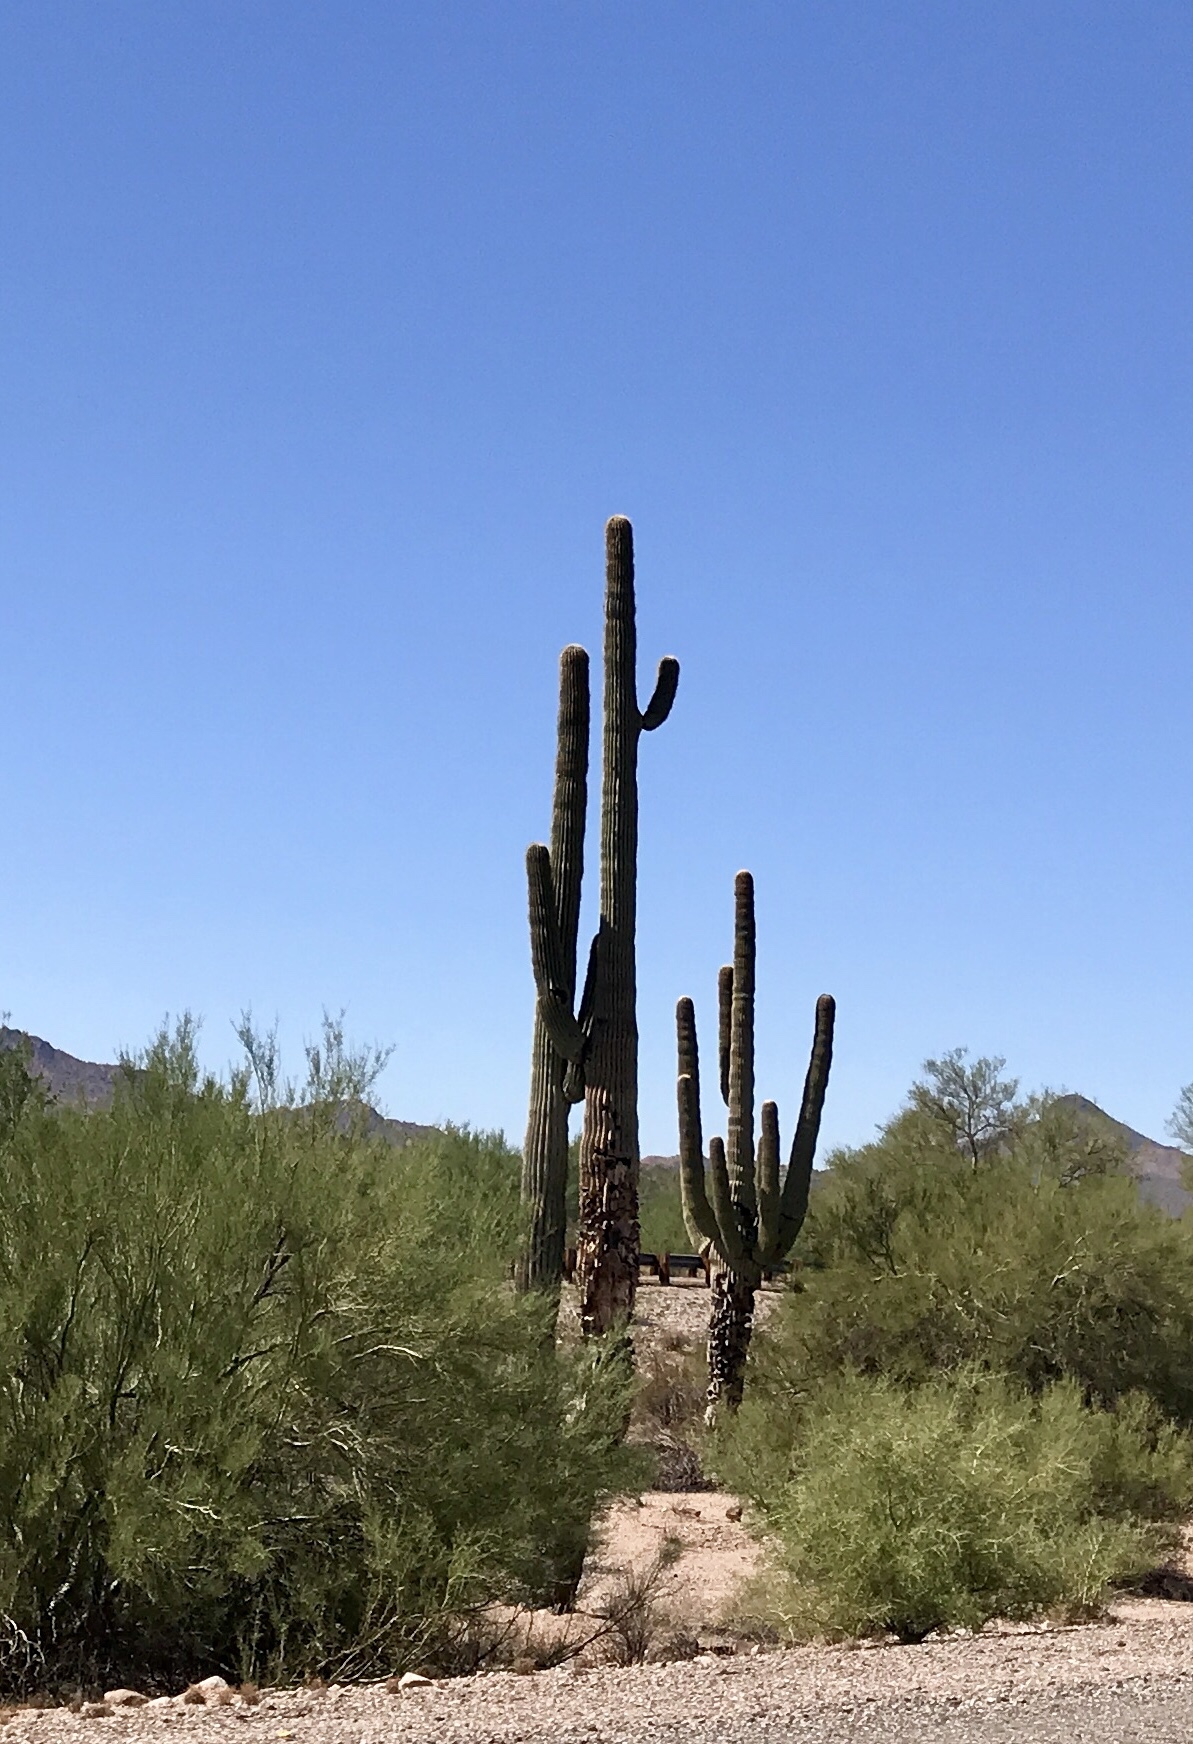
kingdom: Plantae
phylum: Tracheophyta
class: Magnoliopsida
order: Caryophyllales
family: Cactaceae
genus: Carnegiea
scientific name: Carnegiea gigantea
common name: Saguaro
